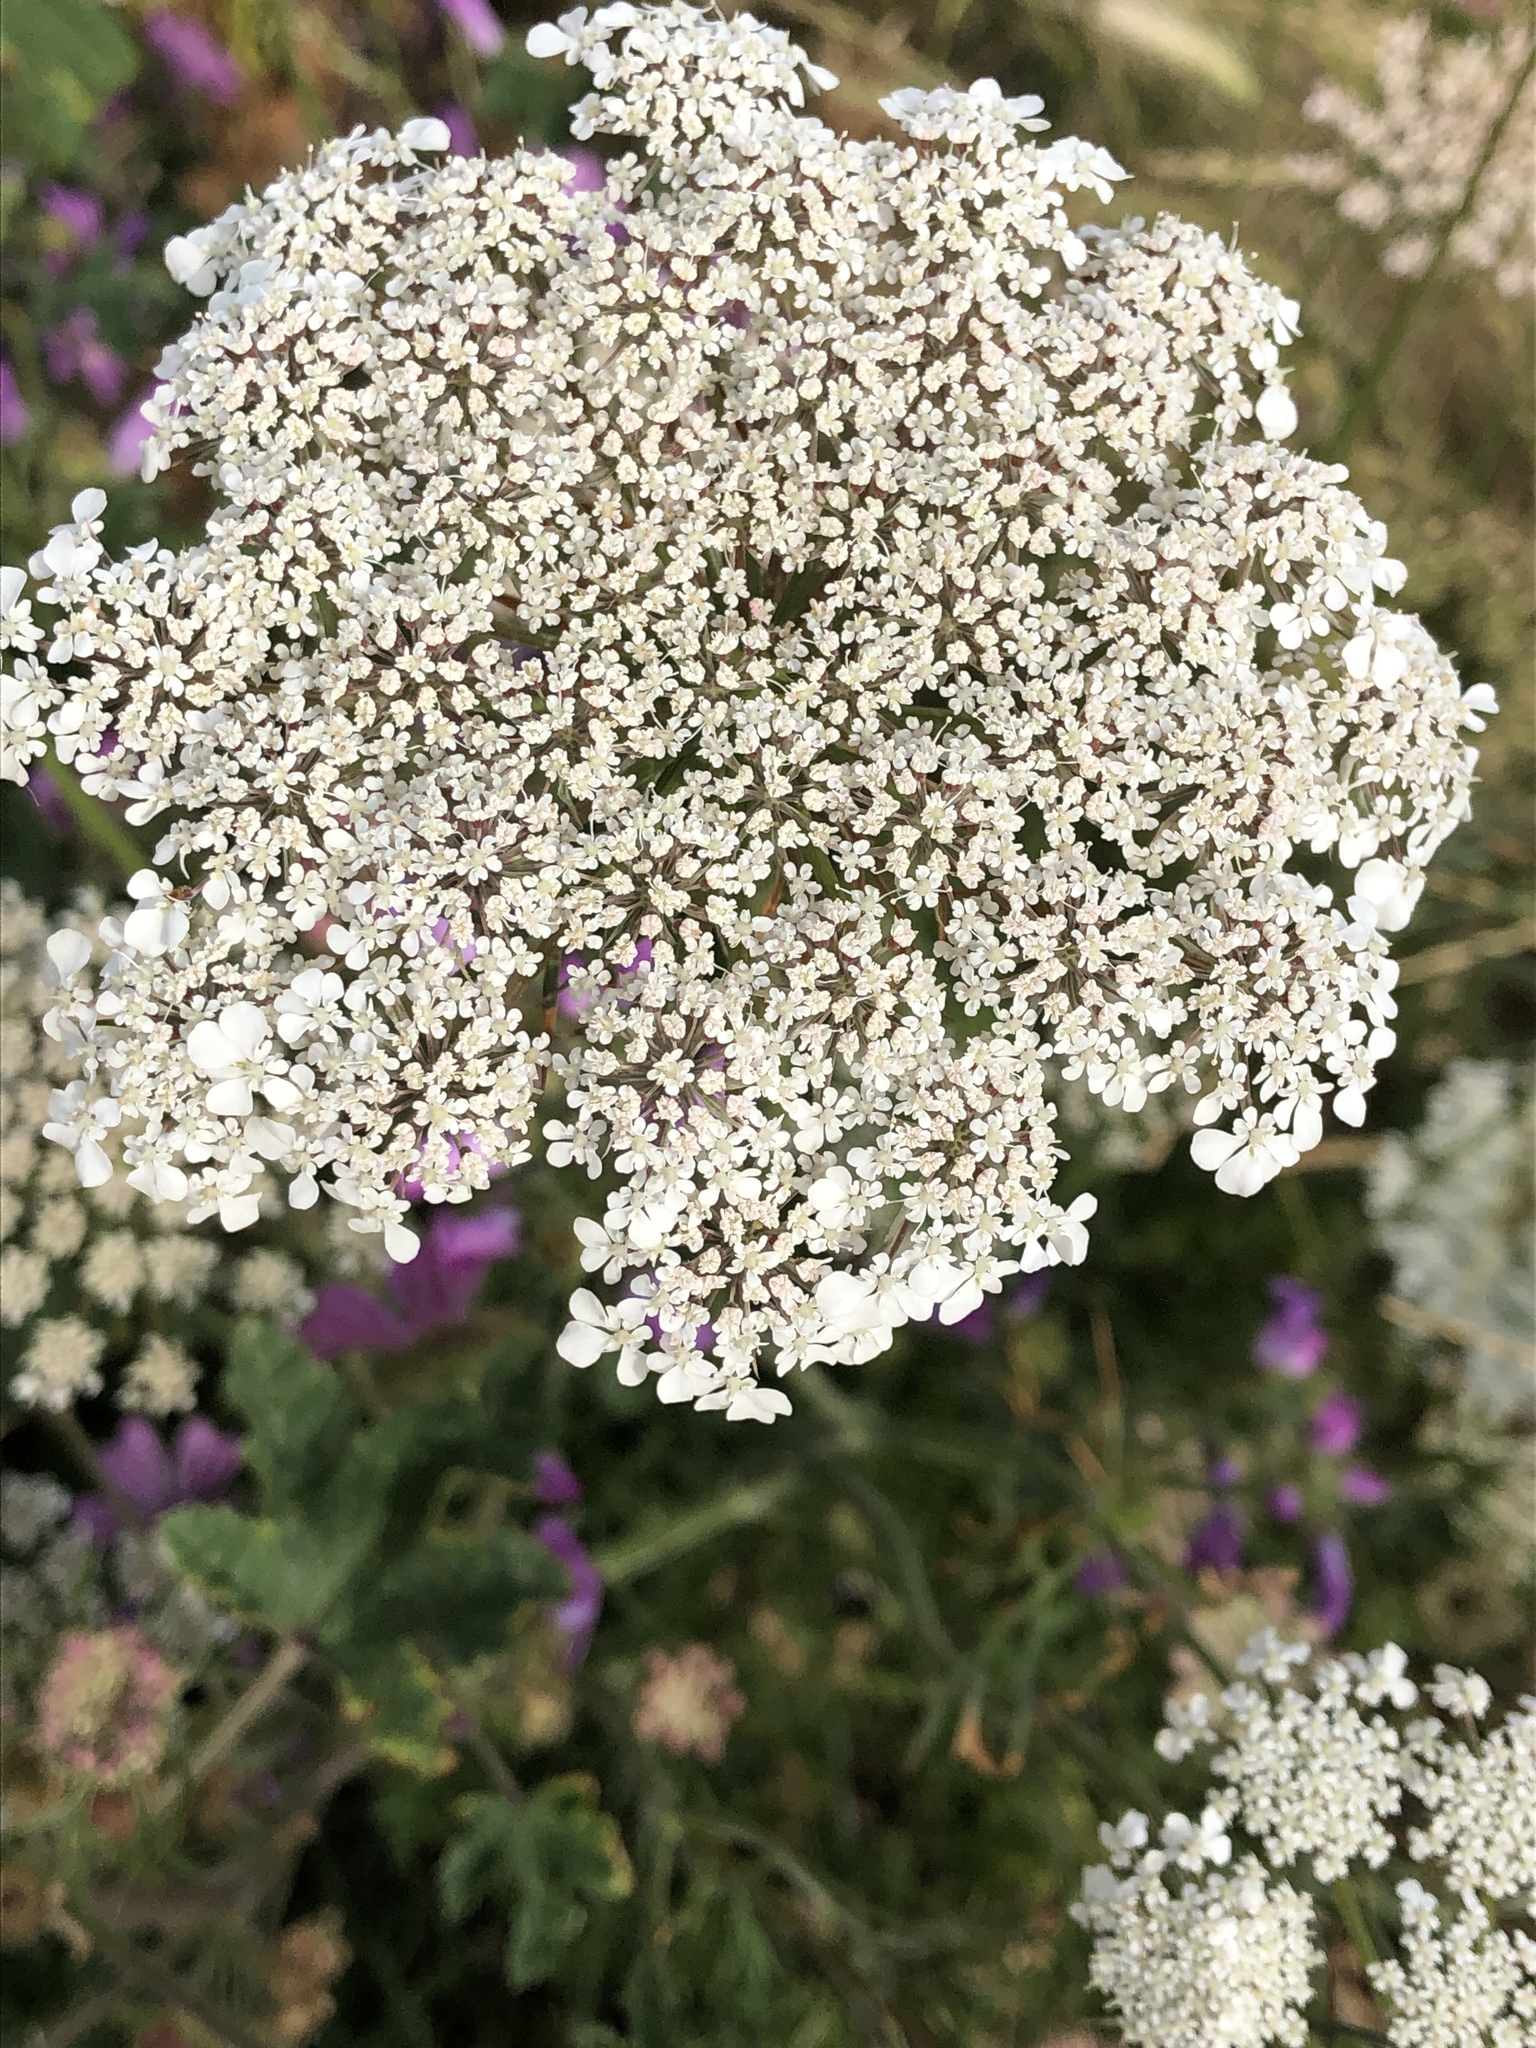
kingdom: Plantae
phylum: Tracheophyta
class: Magnoliopsida
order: Apiales
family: Apiaceae
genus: Daucus
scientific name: Daucus carota
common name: Wild carrot
